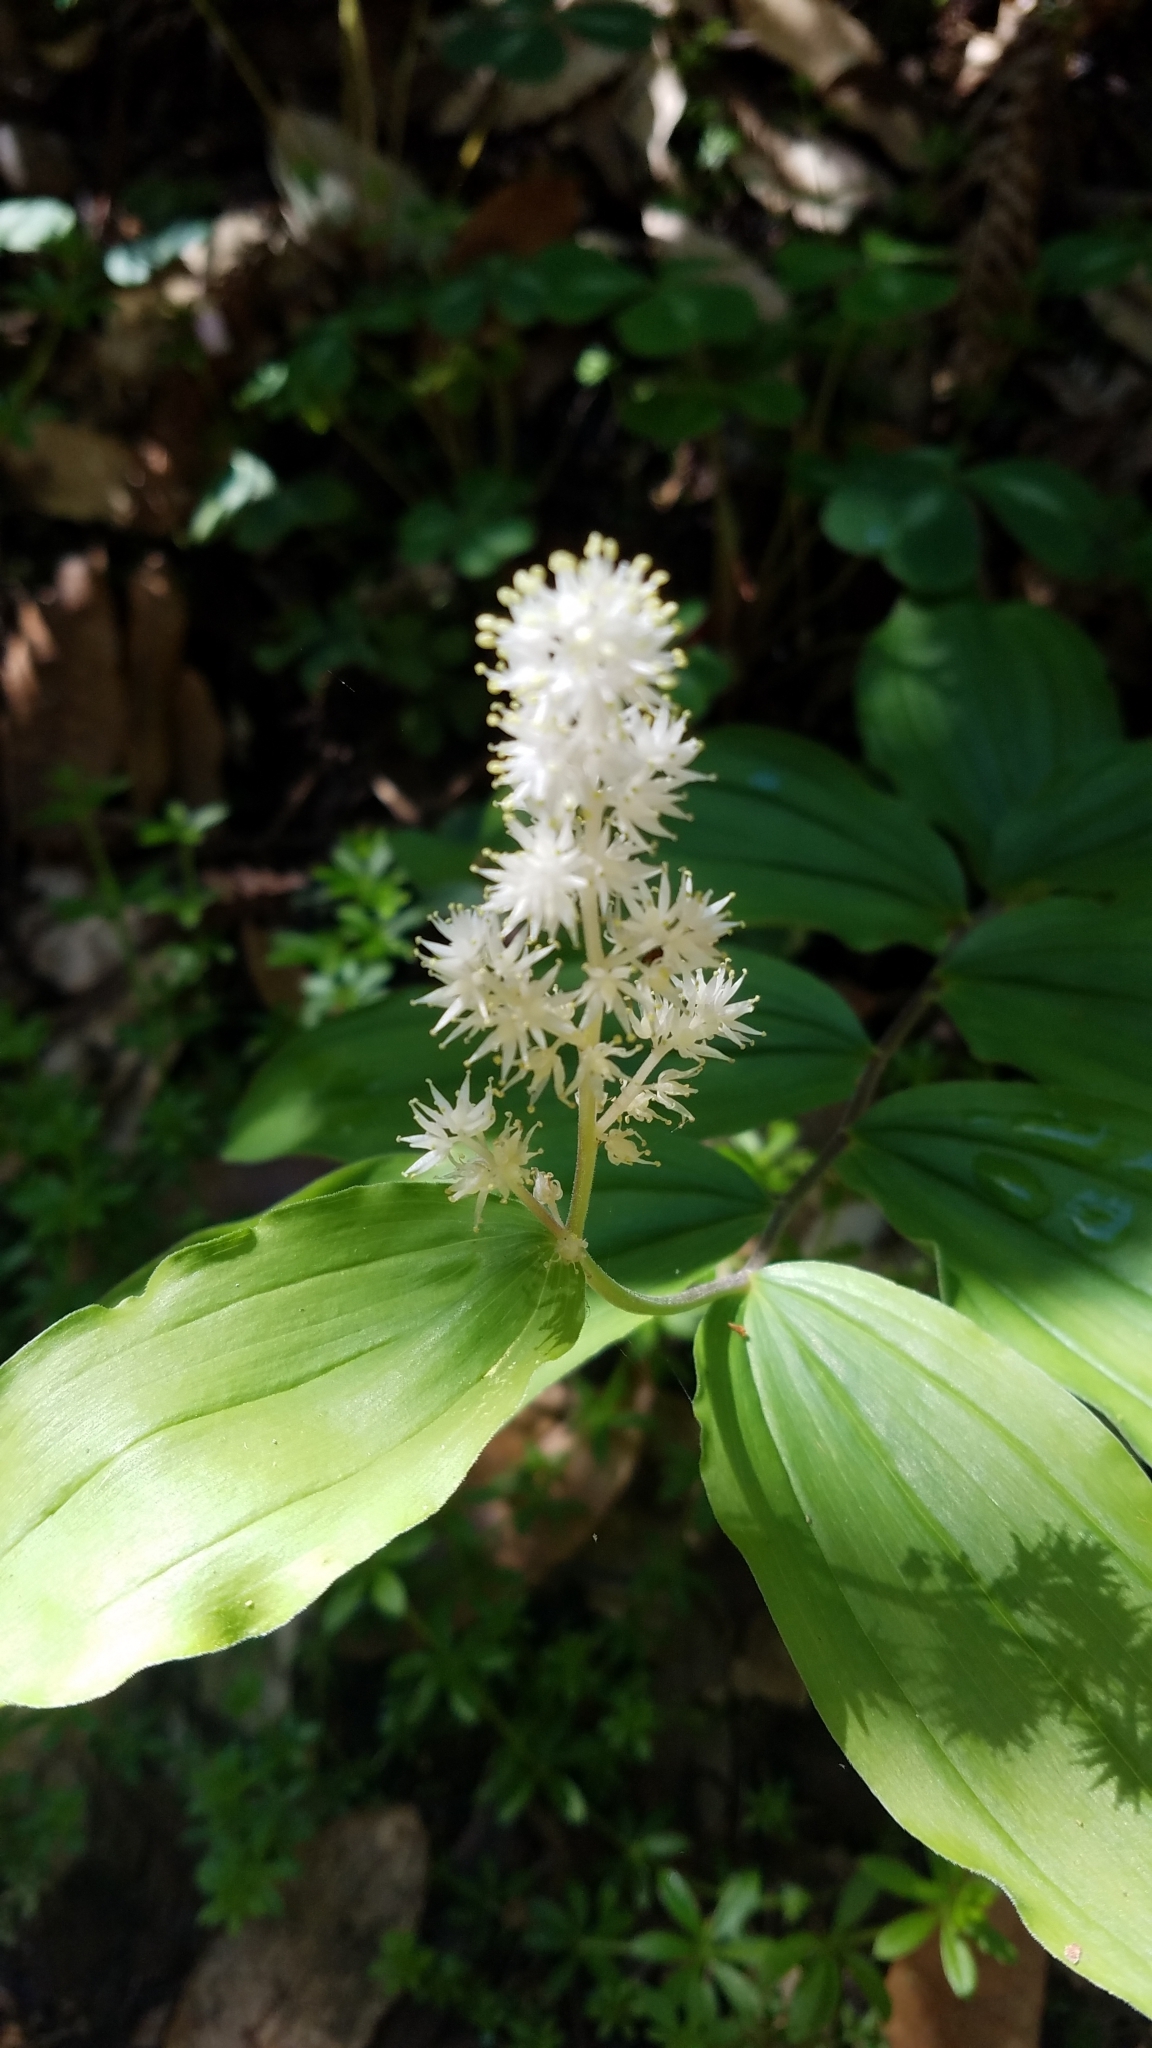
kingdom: Plantae
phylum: Tracheophyta
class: Liliopsida
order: Asparagales
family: Asparagaceae
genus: Maianthemum
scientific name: Maianthemum racemosum
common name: False spikenard
